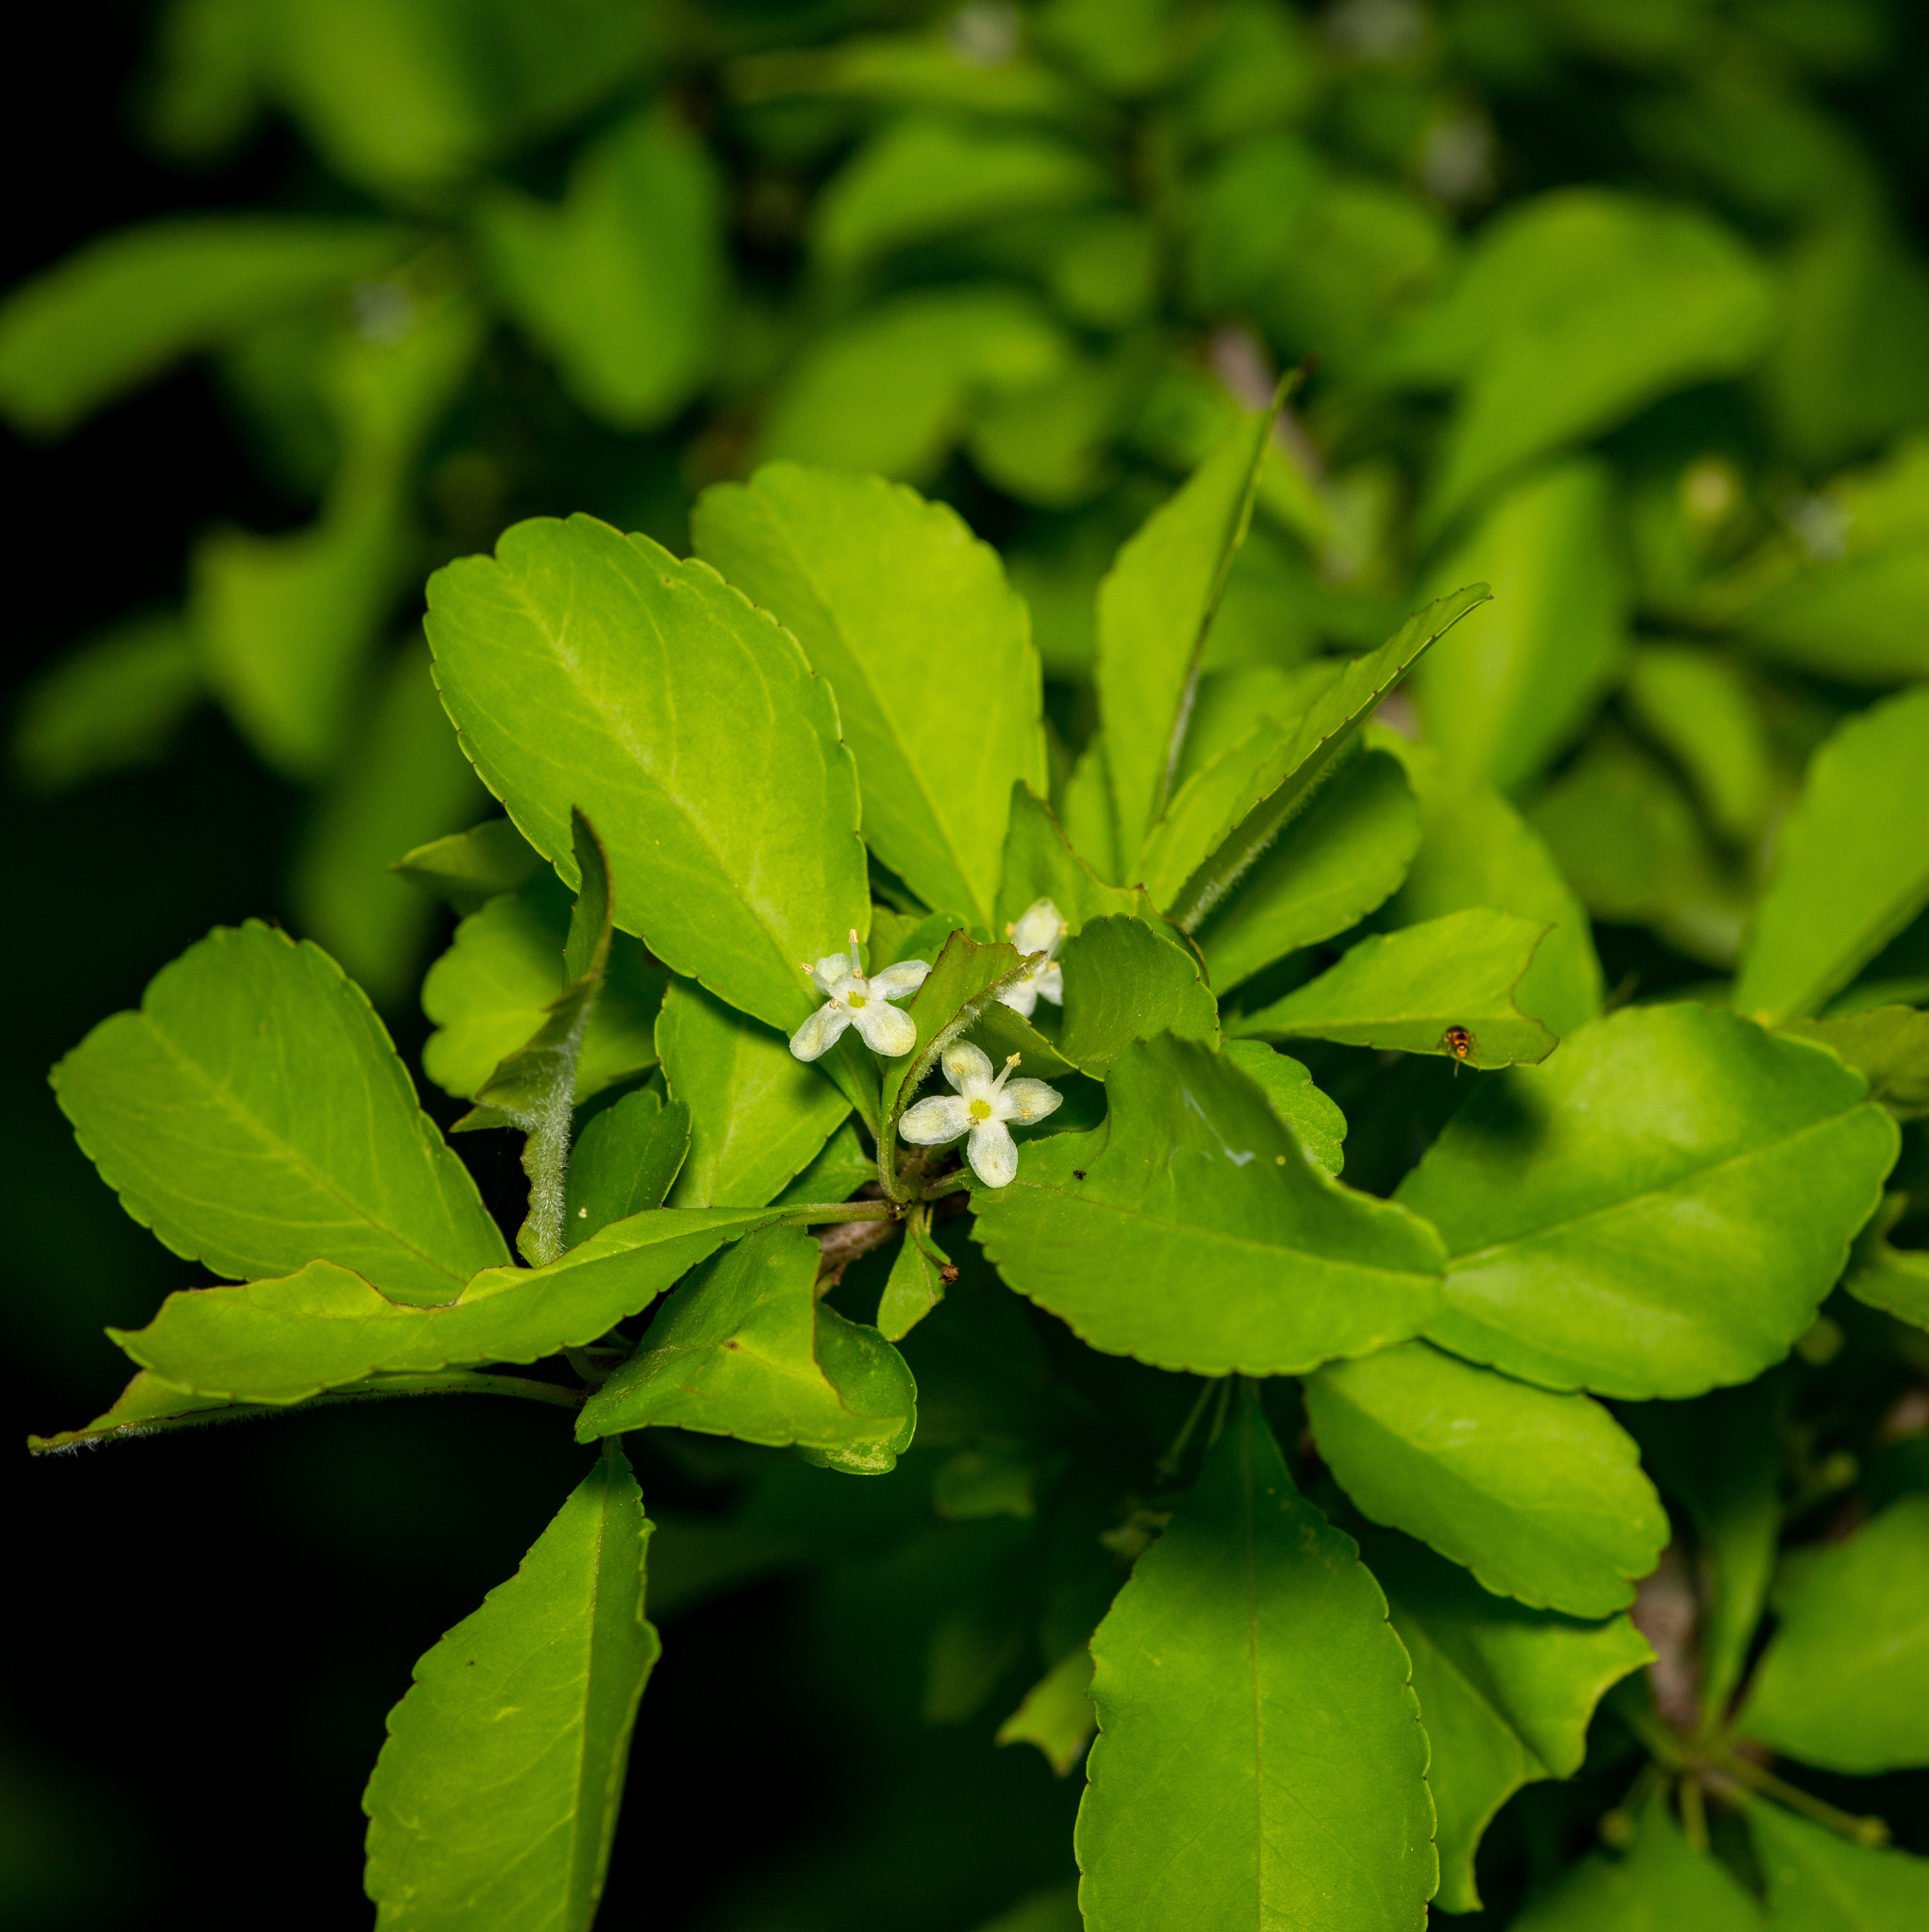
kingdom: Plantae
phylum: Tracheophyta
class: Magnoliopsida
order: Aquifoliales
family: Aquifoliaceae
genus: Ilex
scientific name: Ilex decidua
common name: Possum-haw
